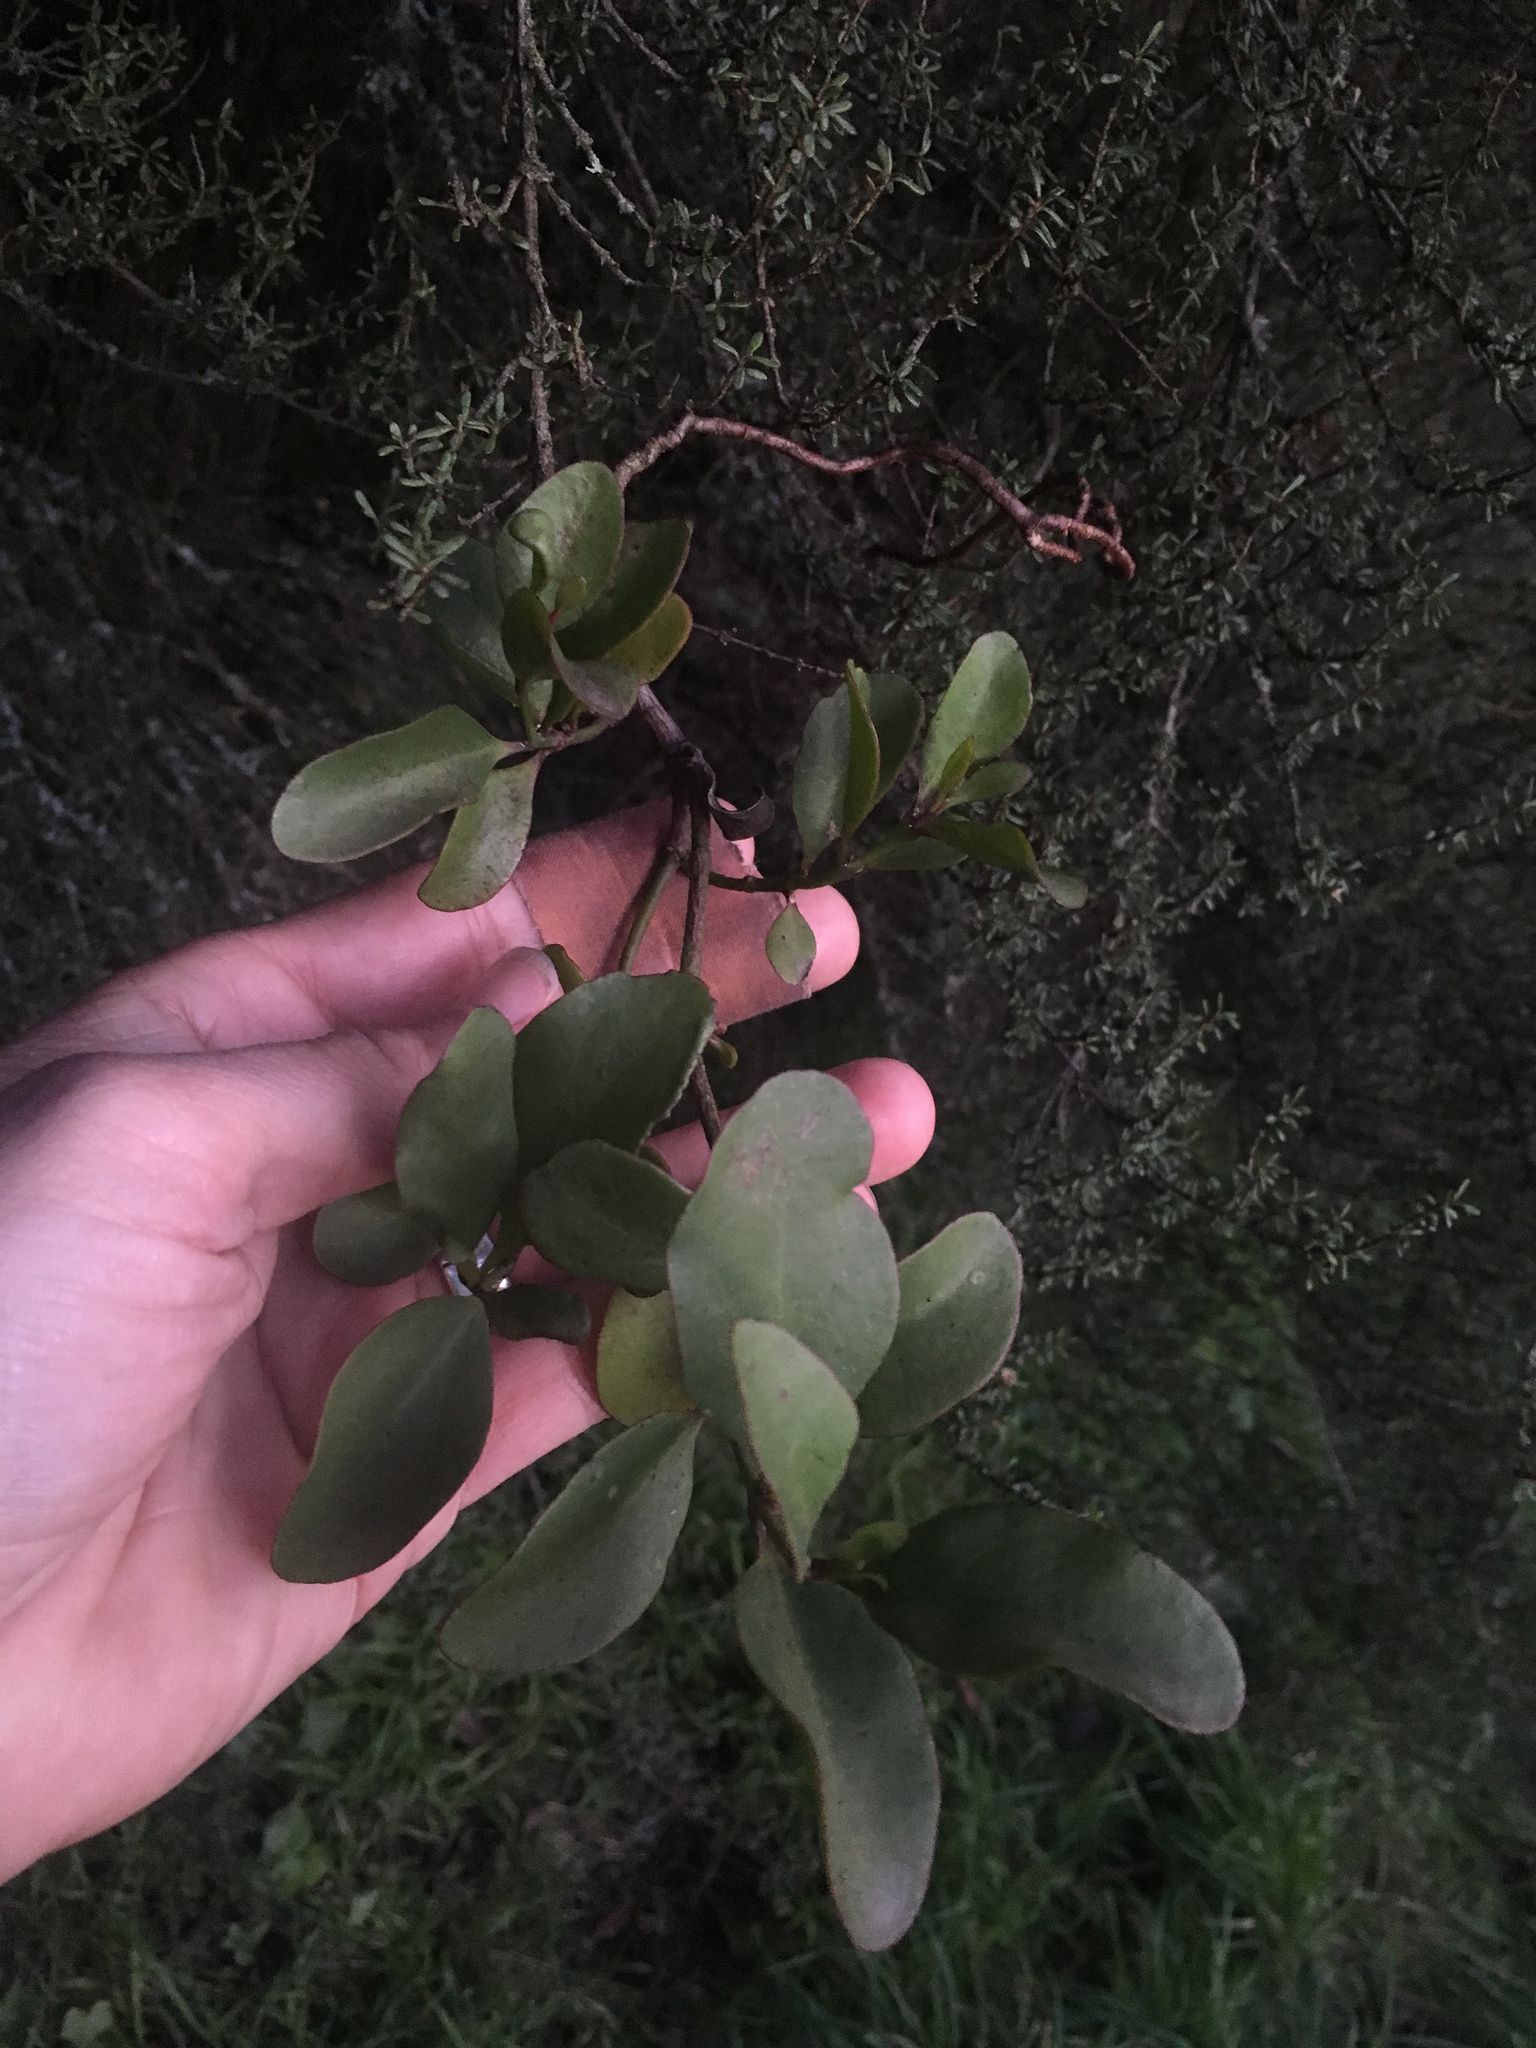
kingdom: Plantae
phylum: Tracheophyta
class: Magnoliopsida
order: Santalales
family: Loranthaceae
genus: Ileostylus
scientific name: Ileostylus micranthus
